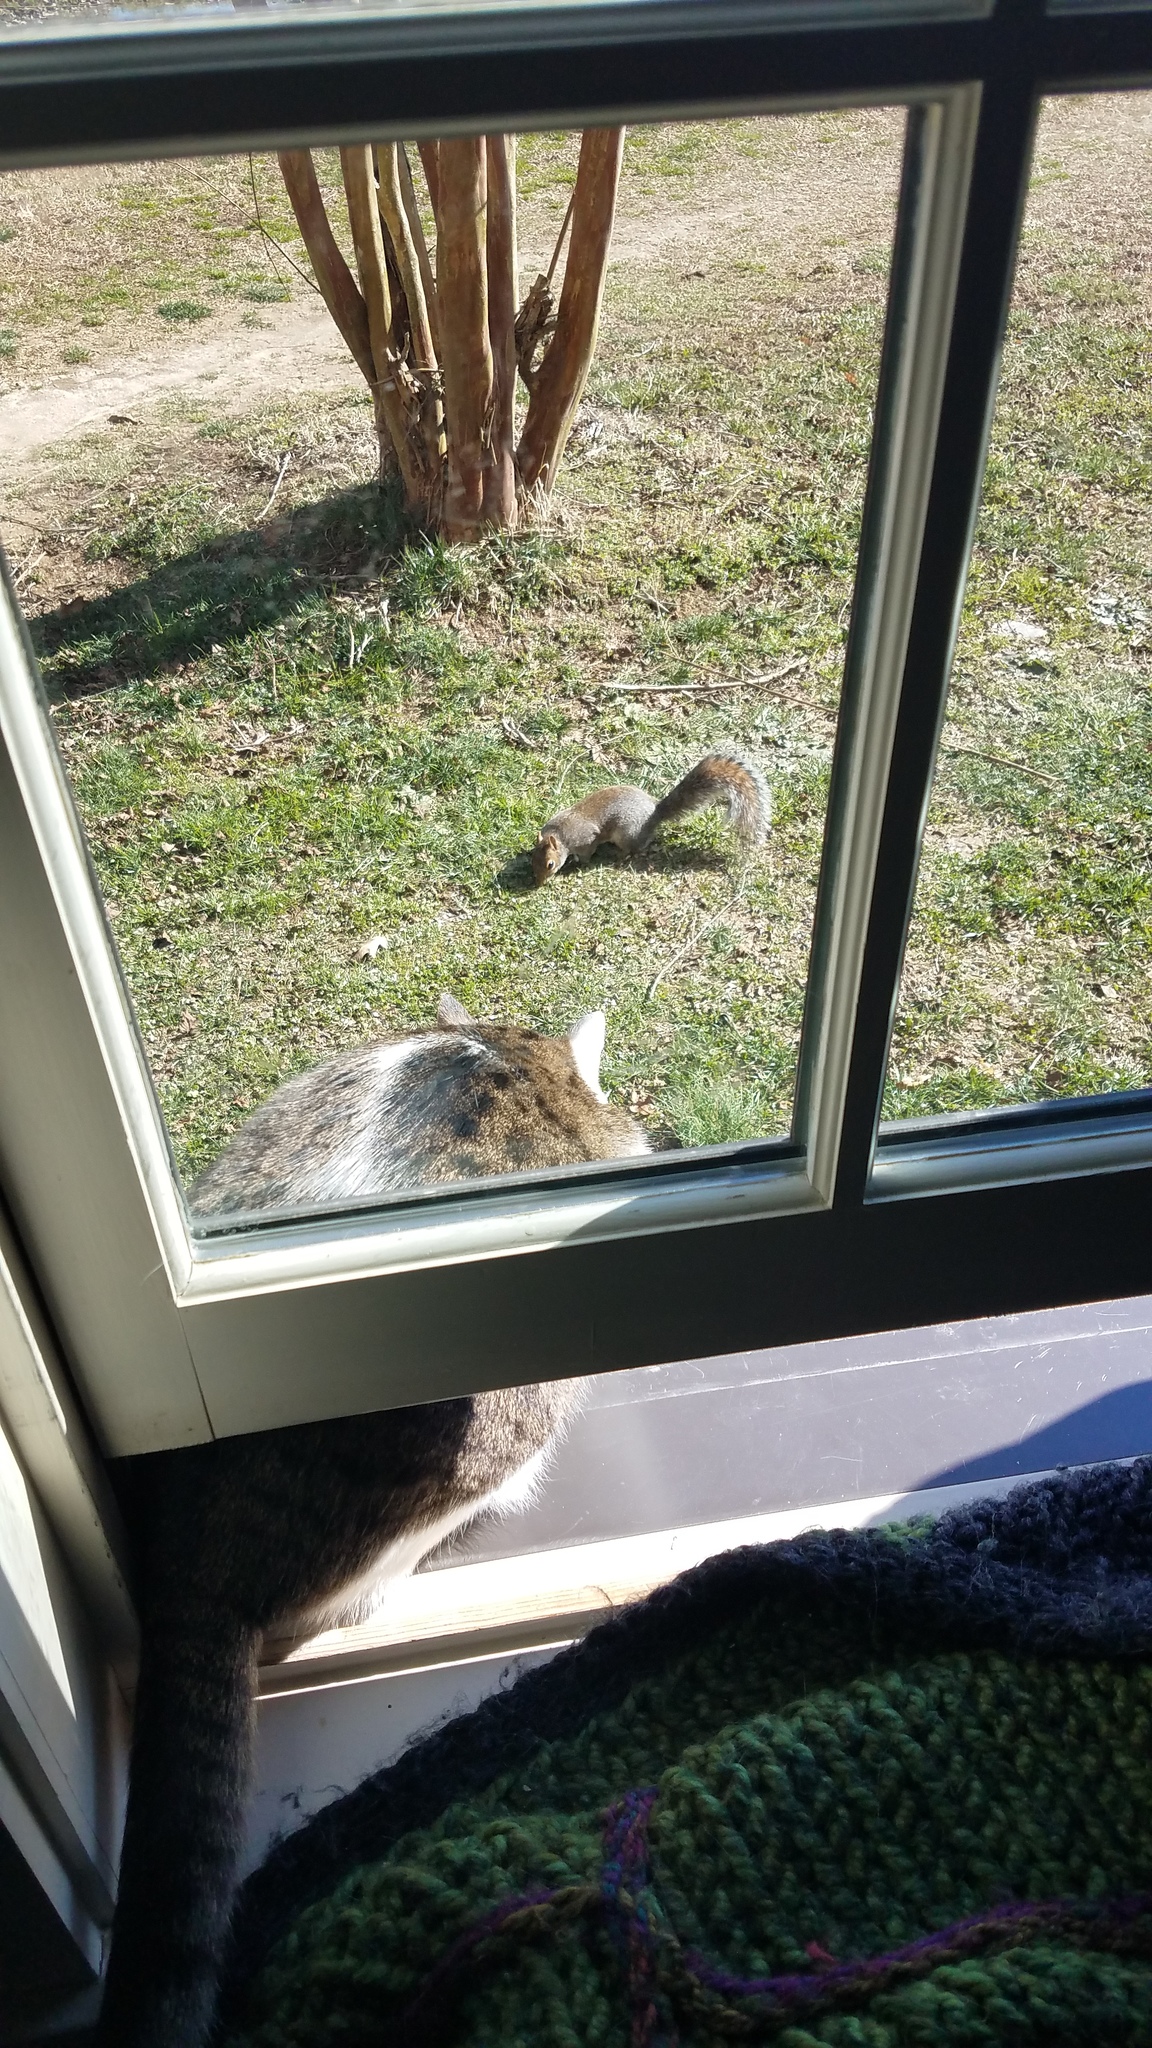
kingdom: Animalia
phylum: Chordata
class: Mammalia
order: Rodentia
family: Sciuridae
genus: Sciurus
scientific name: Sciurus carolinensis
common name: Eastern gray squirrel
